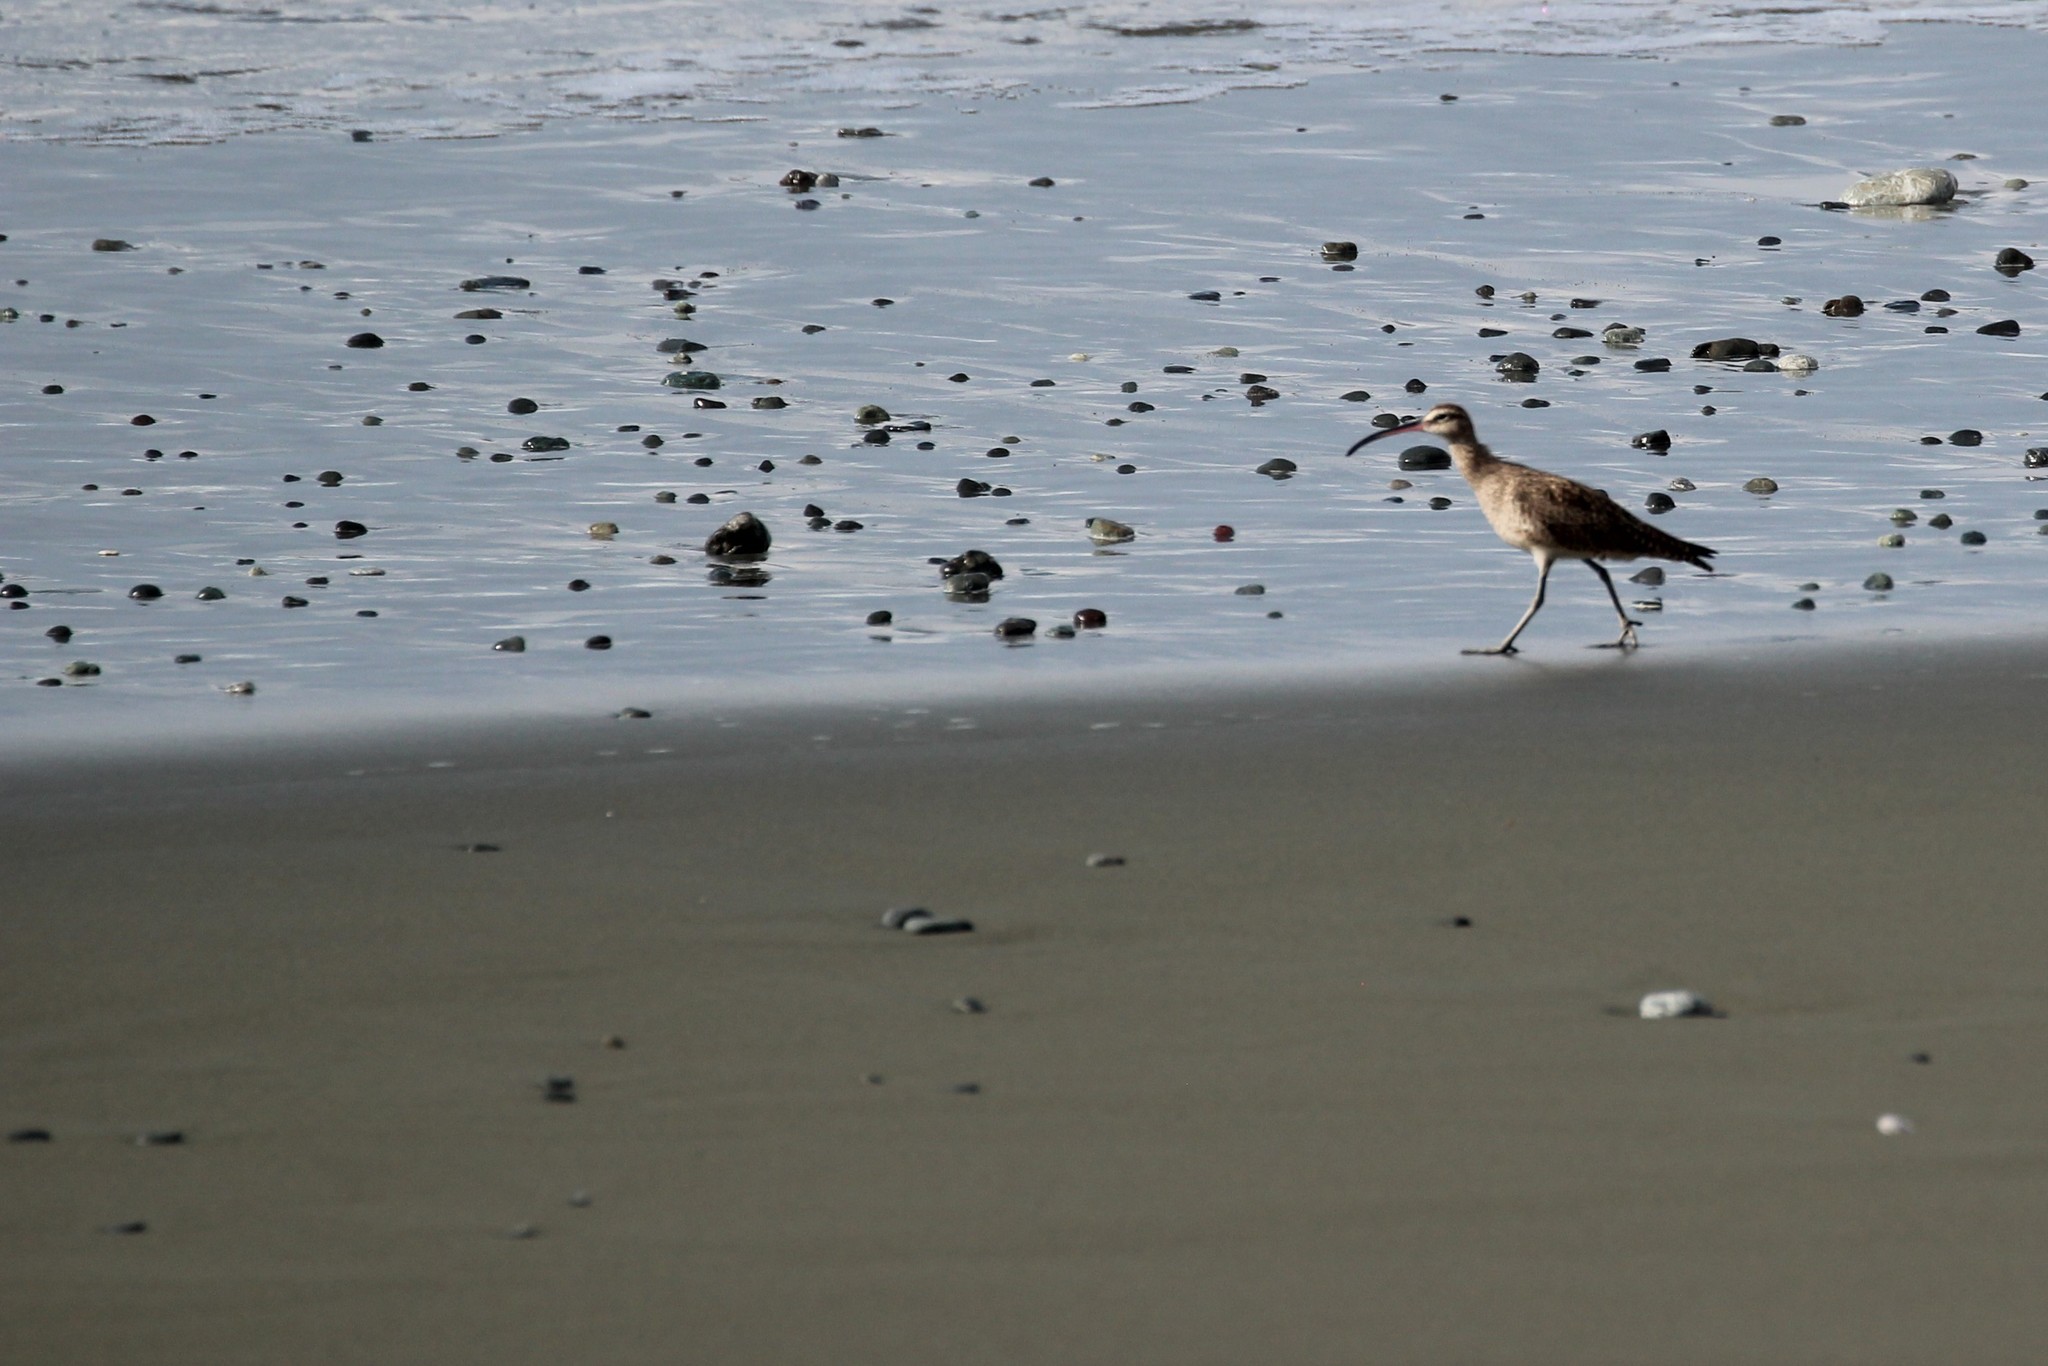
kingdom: Animalia
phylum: Chordata
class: Aves
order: Charadriiformes
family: Scolopacidae
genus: Numenius
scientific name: Numenius phaeopus
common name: Whimbrel
